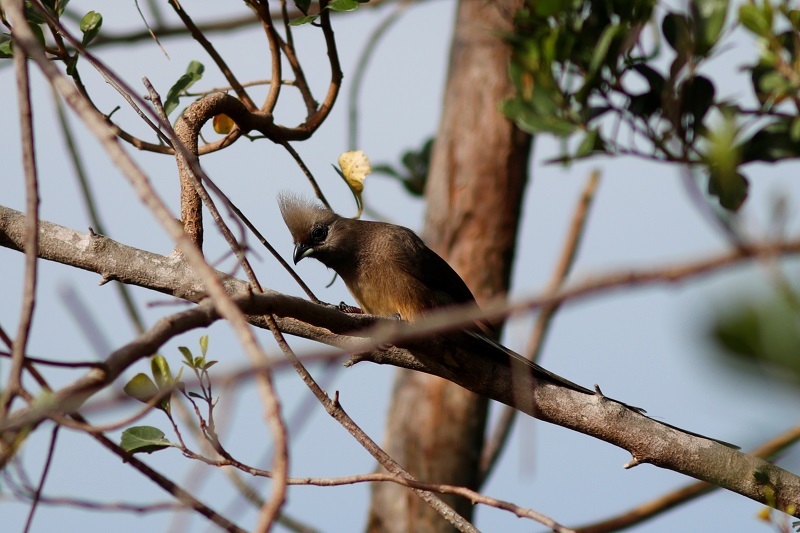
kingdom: Animalia
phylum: Chordata
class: Aves
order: Coliiformes
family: Coliidae
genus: Colius
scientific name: Colius striatus
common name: Speckled mousebird
